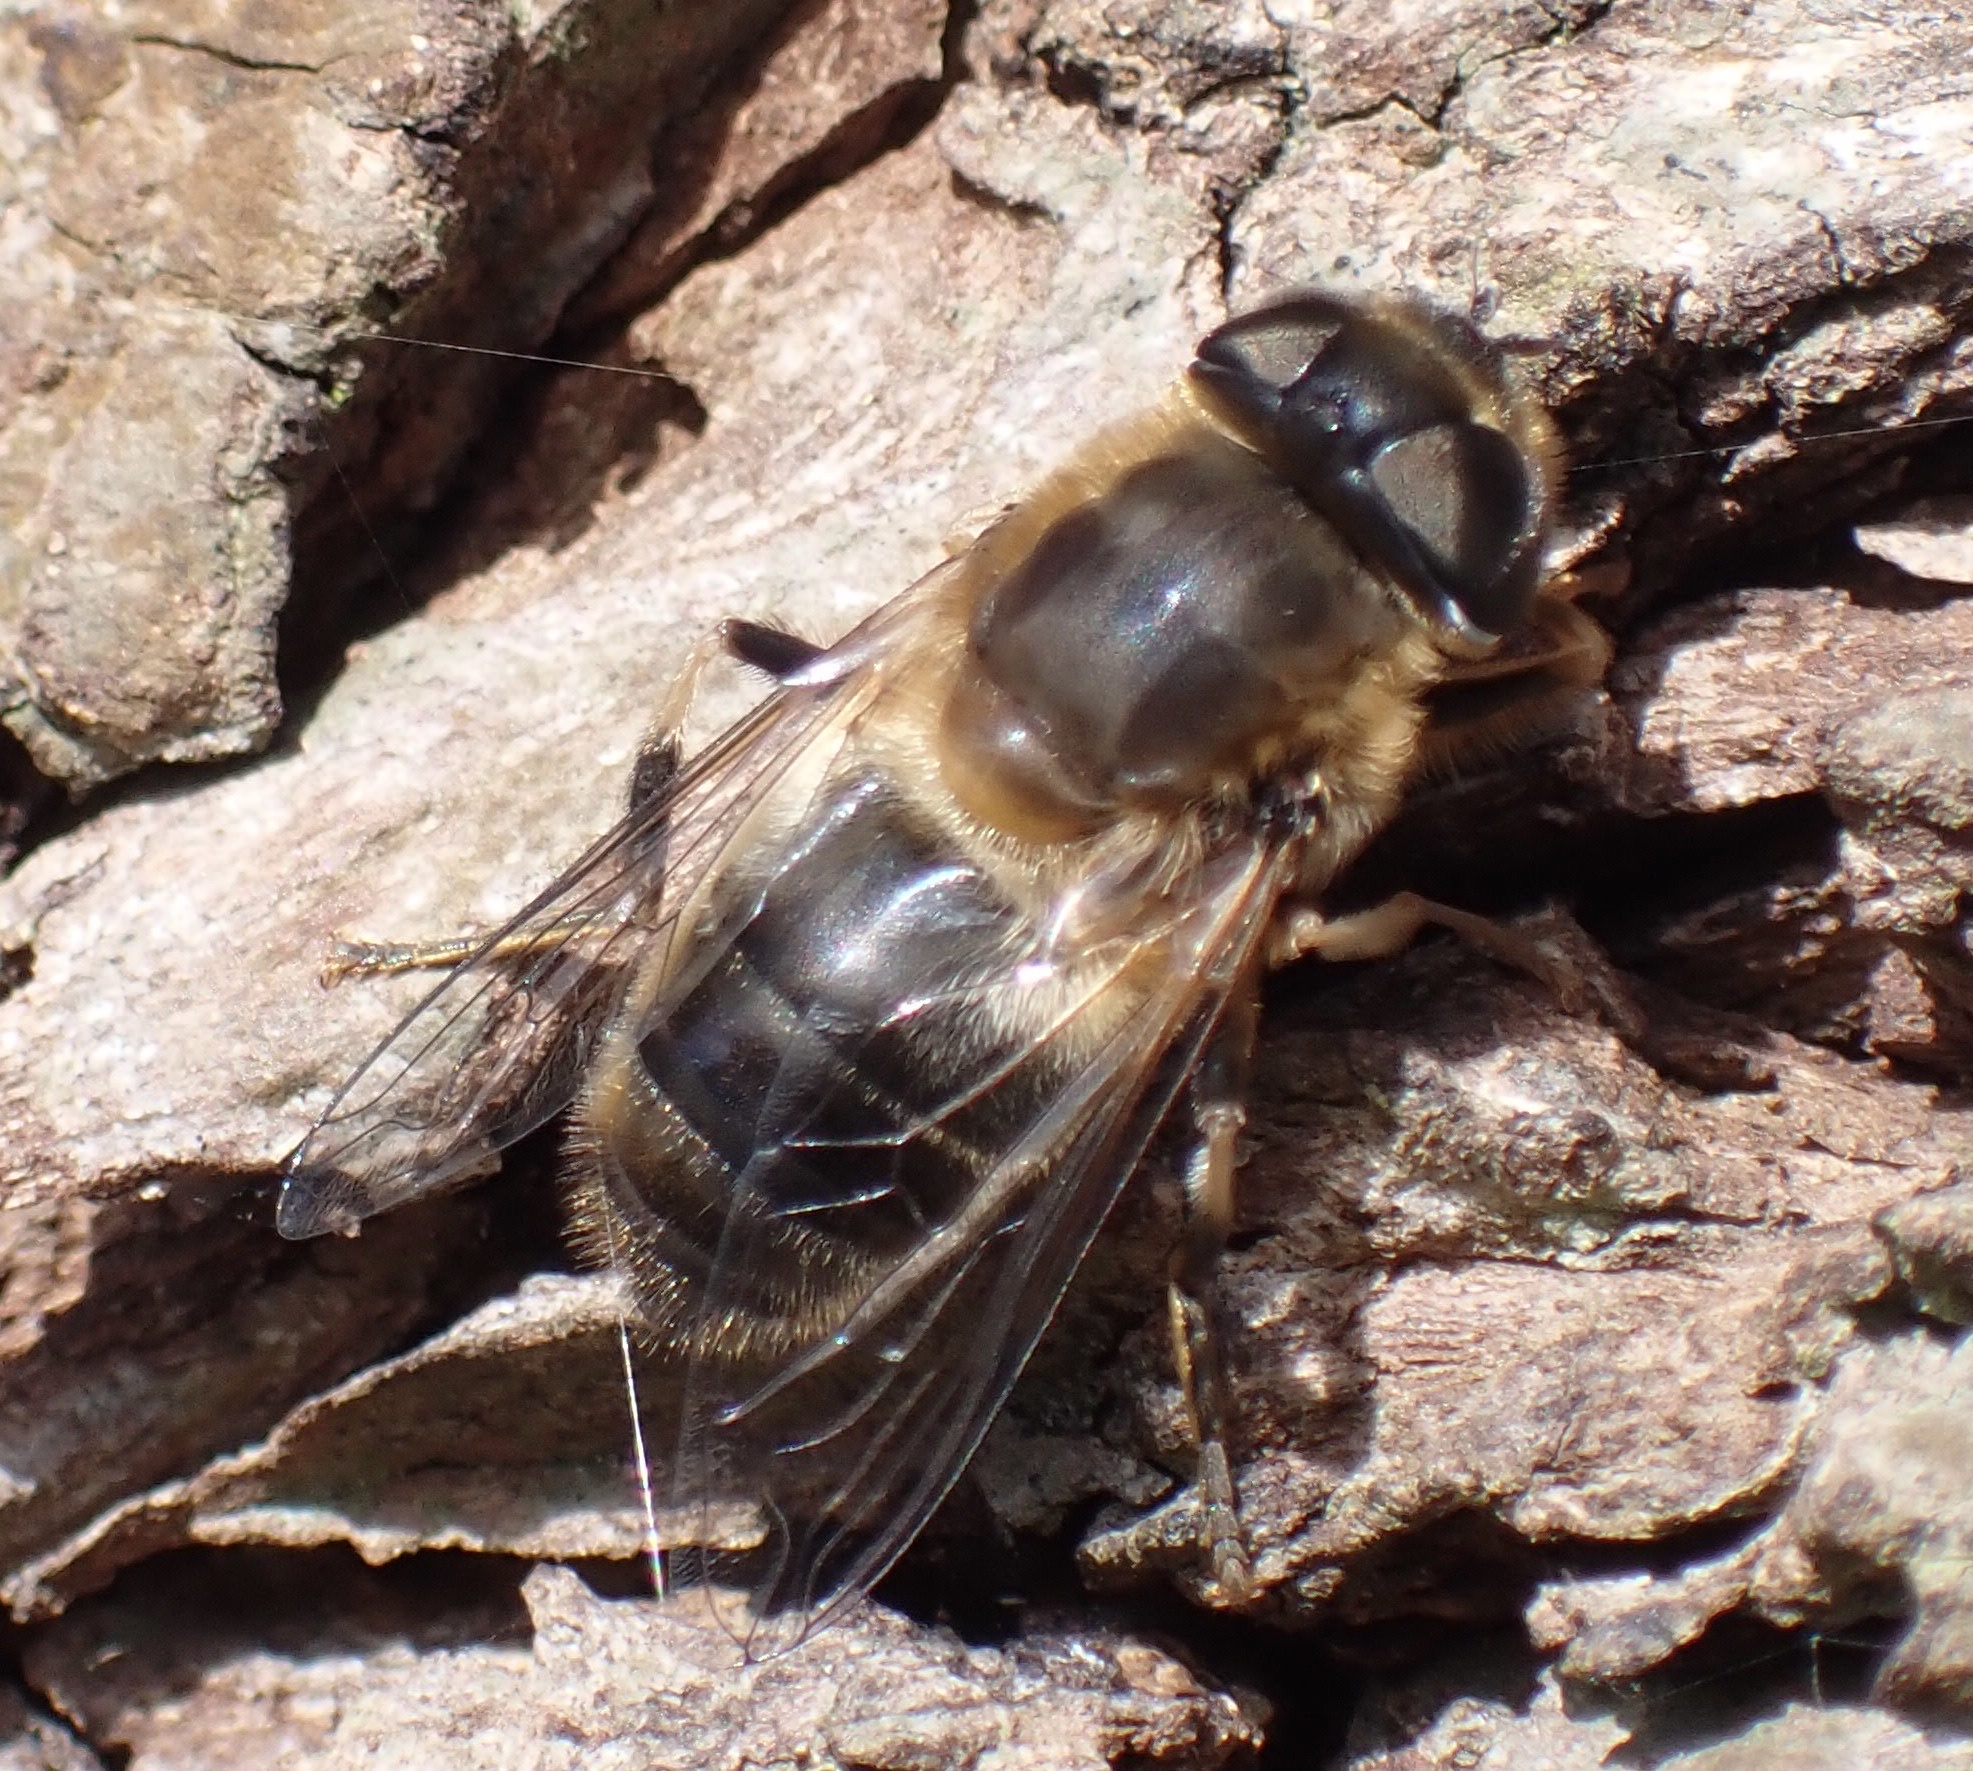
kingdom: Animalia
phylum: Arthropoda
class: Insecta
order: Diptera
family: Syrphidae
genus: Eristalis
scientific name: Eristalis pertinax
